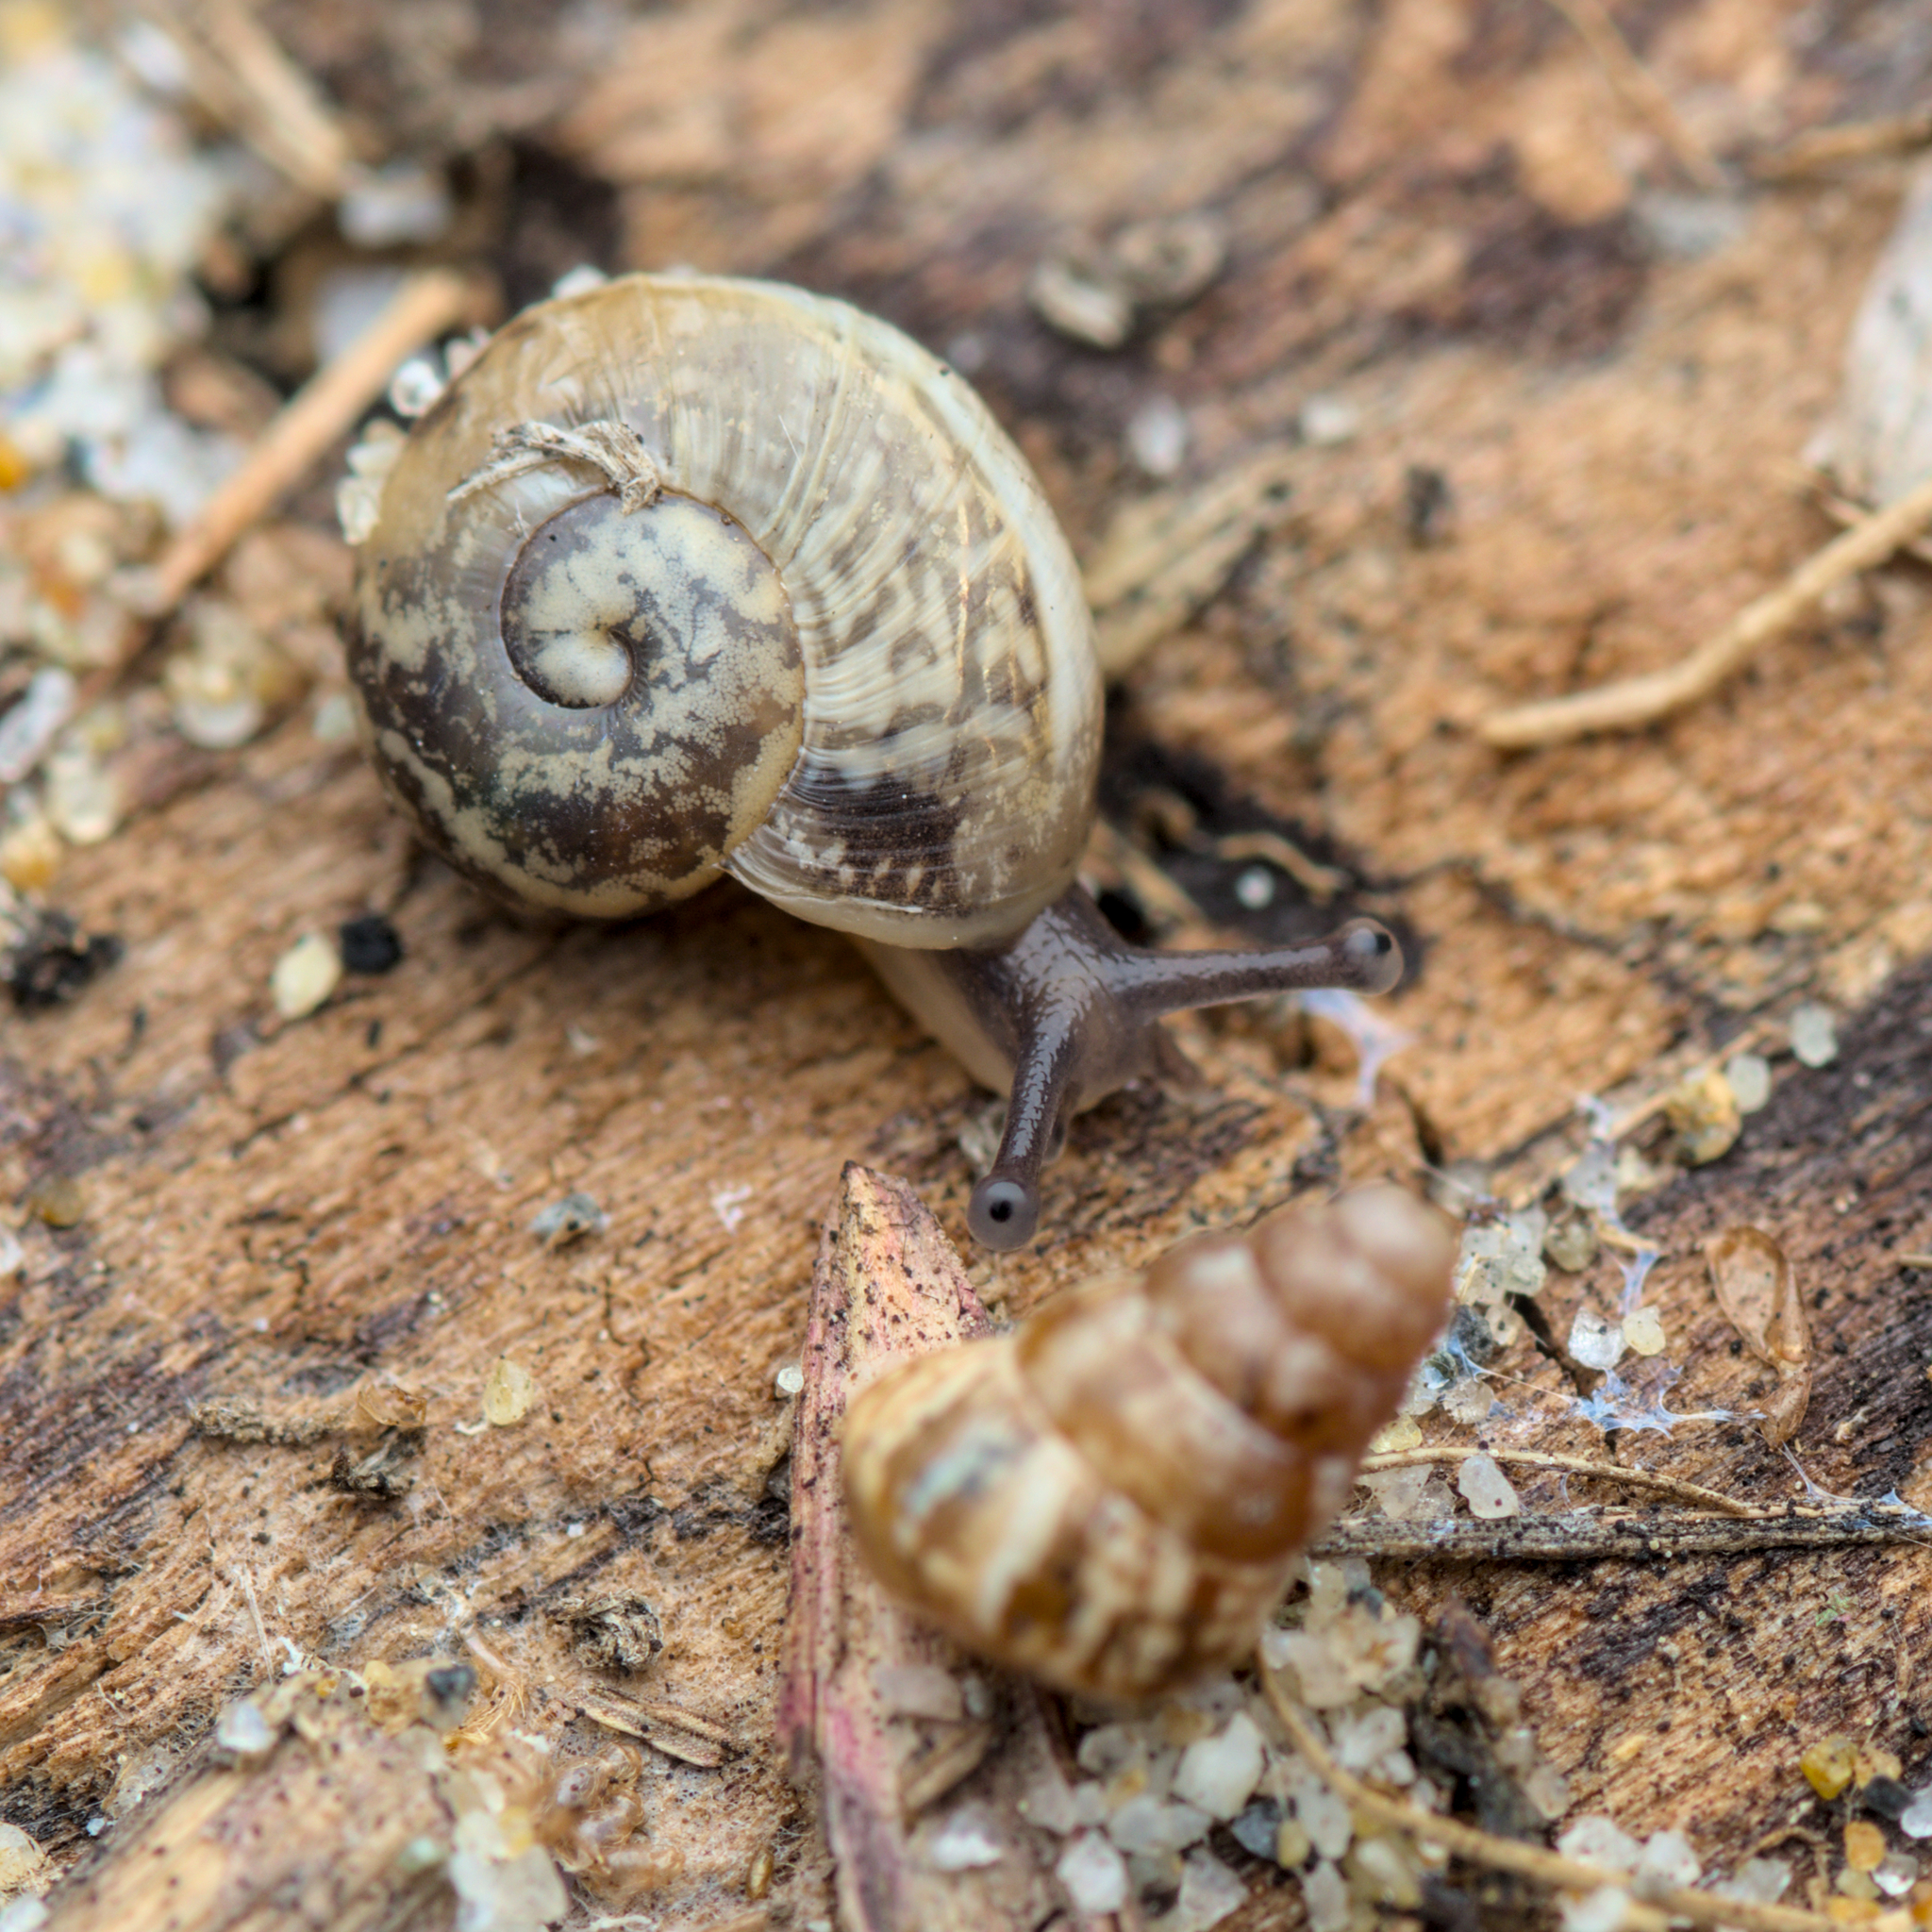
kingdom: Animalia
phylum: Mollusca
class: Gastropoda
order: Stylommatophora
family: Helicidae
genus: Eobania
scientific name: Eobania vermiculata
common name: Chocolateband snail
